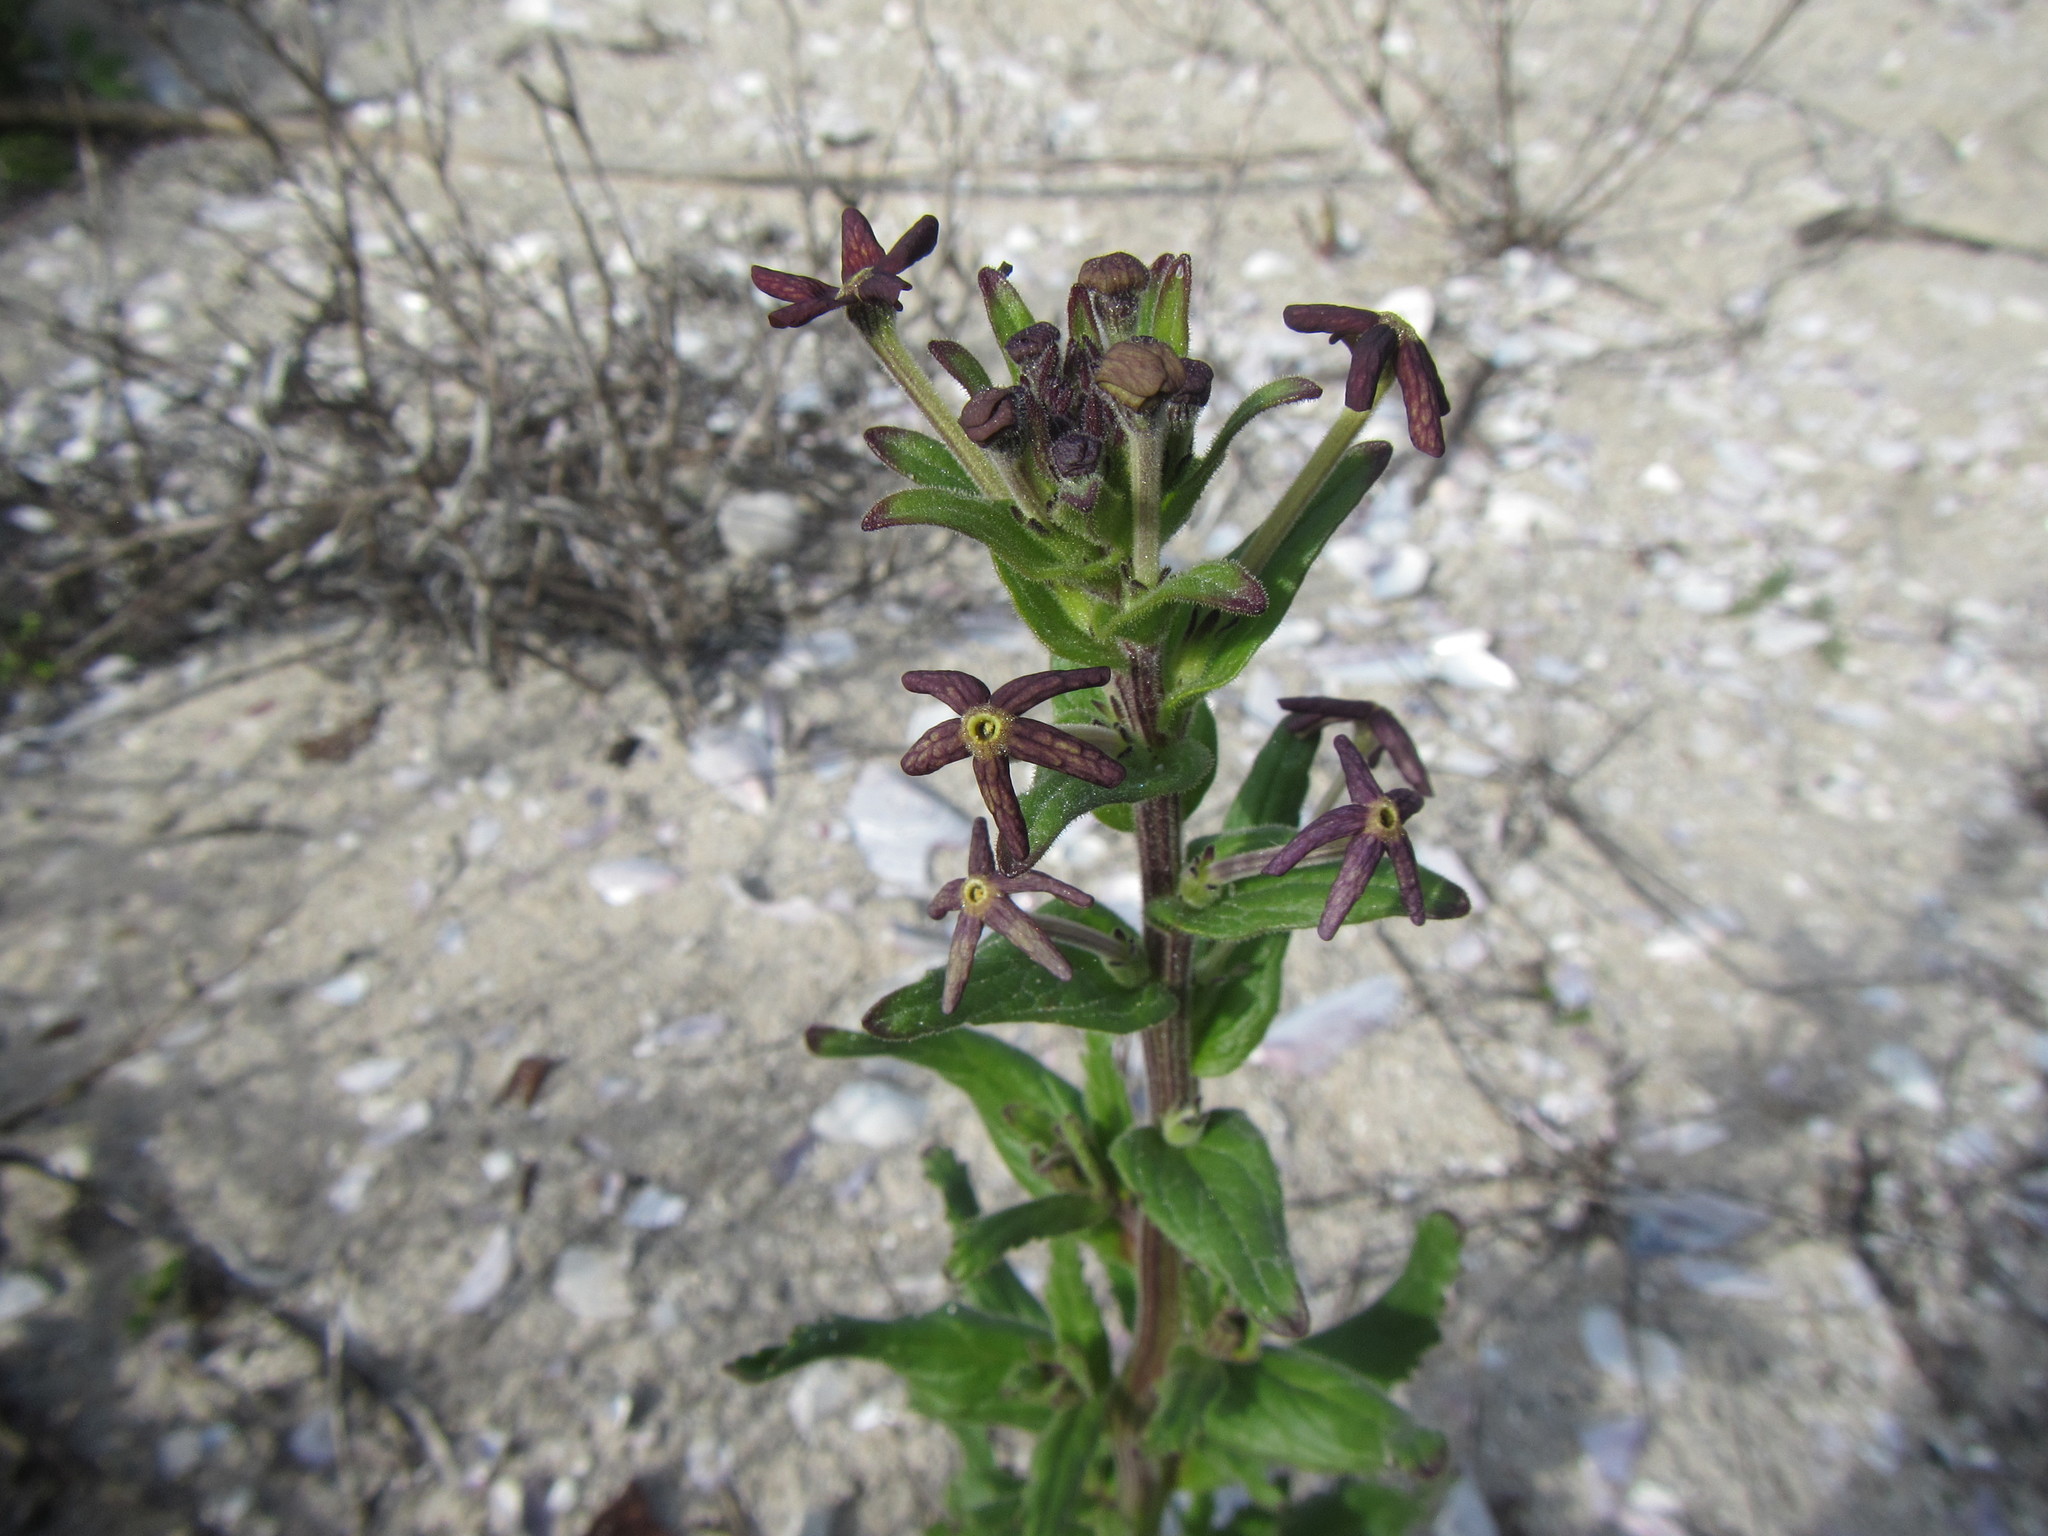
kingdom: Plantae
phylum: Tracheophyta
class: Magnoliopsida
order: Lamiales
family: Scrophulariaceae
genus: Lyperia
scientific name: Lyperia tristis
